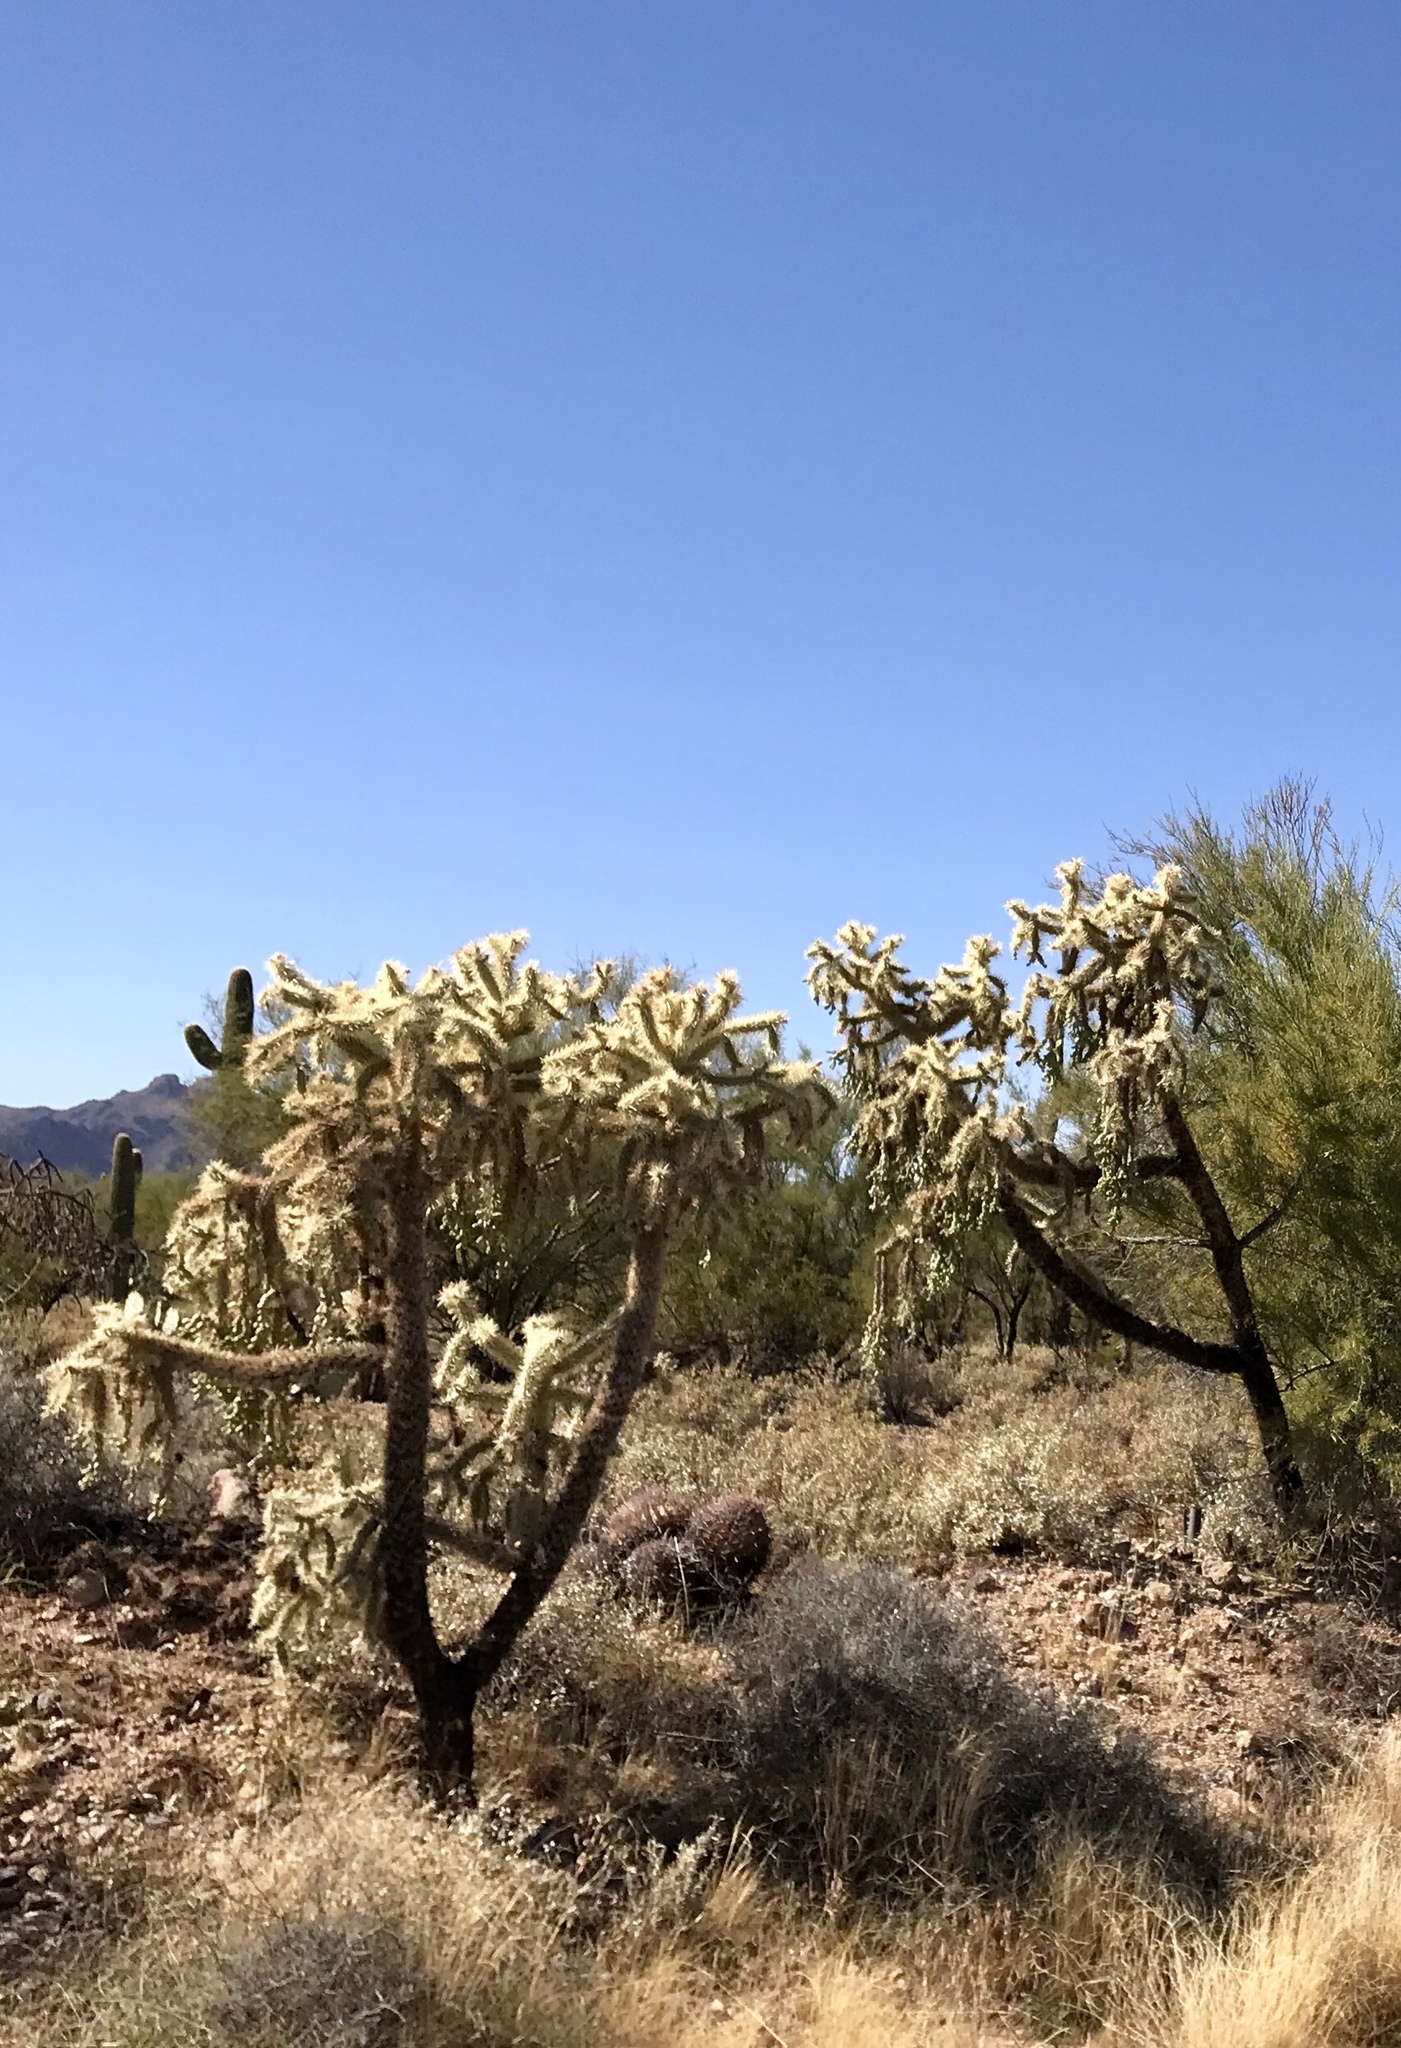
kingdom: Plantae
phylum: Tracheophyta
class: Magnoliopsida
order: Caryophyllales
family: Cactaceae
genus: Cylindropuntia
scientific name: Cylindropuntia fulgida
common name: Jumping cholla
